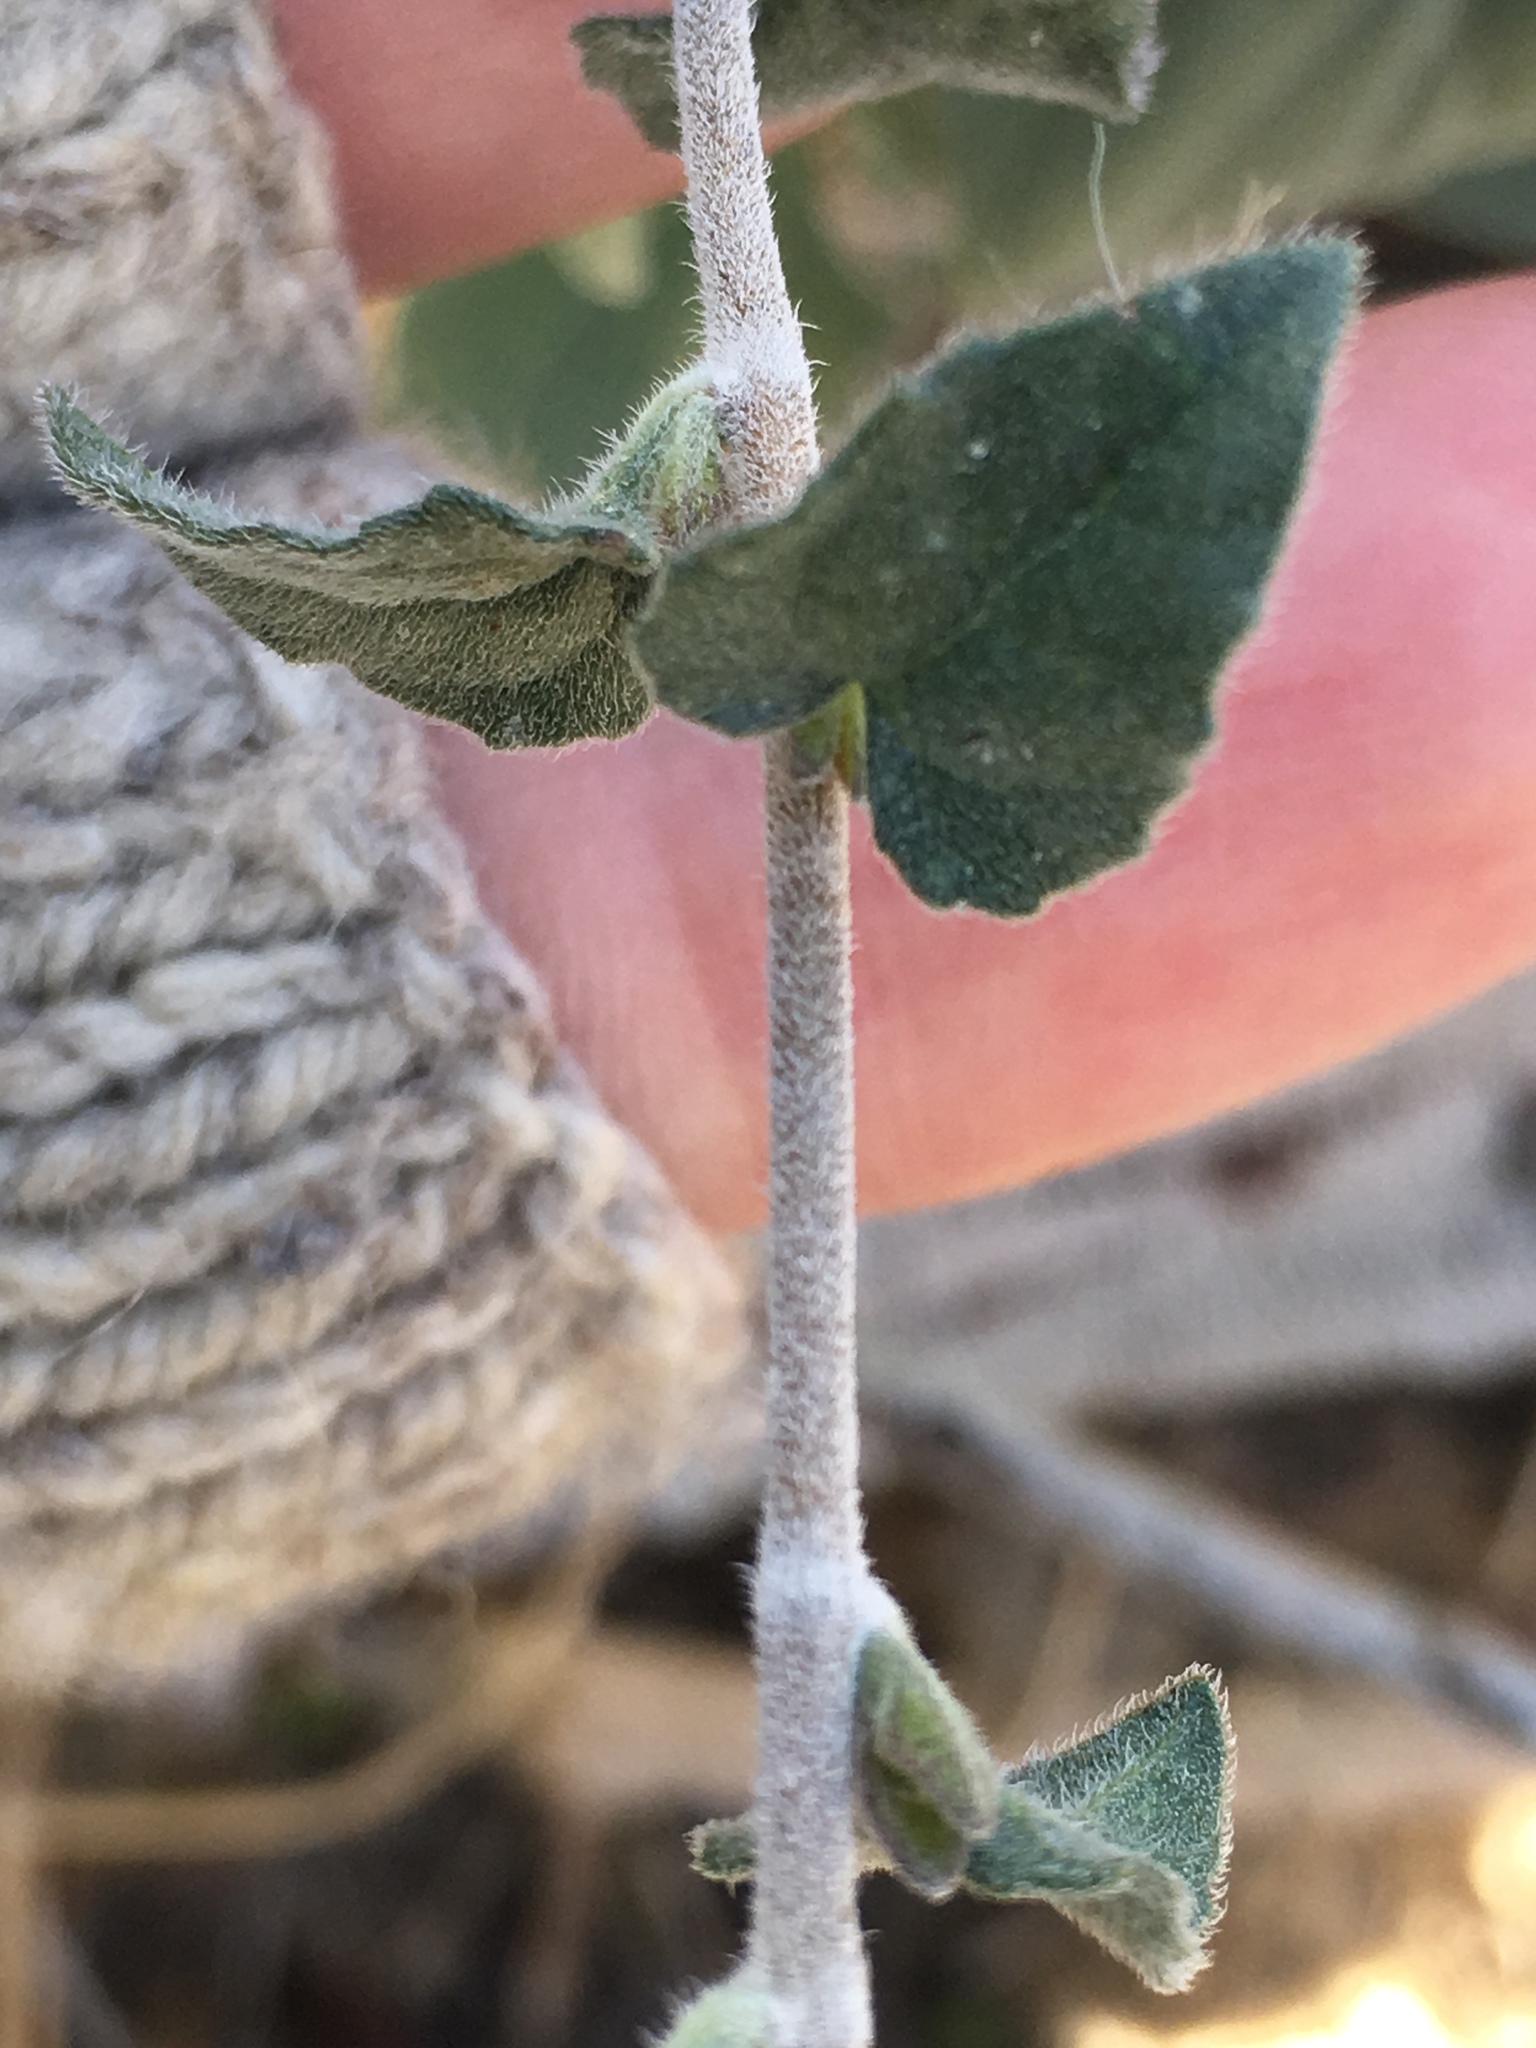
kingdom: Plantae
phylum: Tracheophyta
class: Magnoliopsida
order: Asterales
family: Asteraceae
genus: Bahiopsis
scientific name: Bahiopsis parishii
